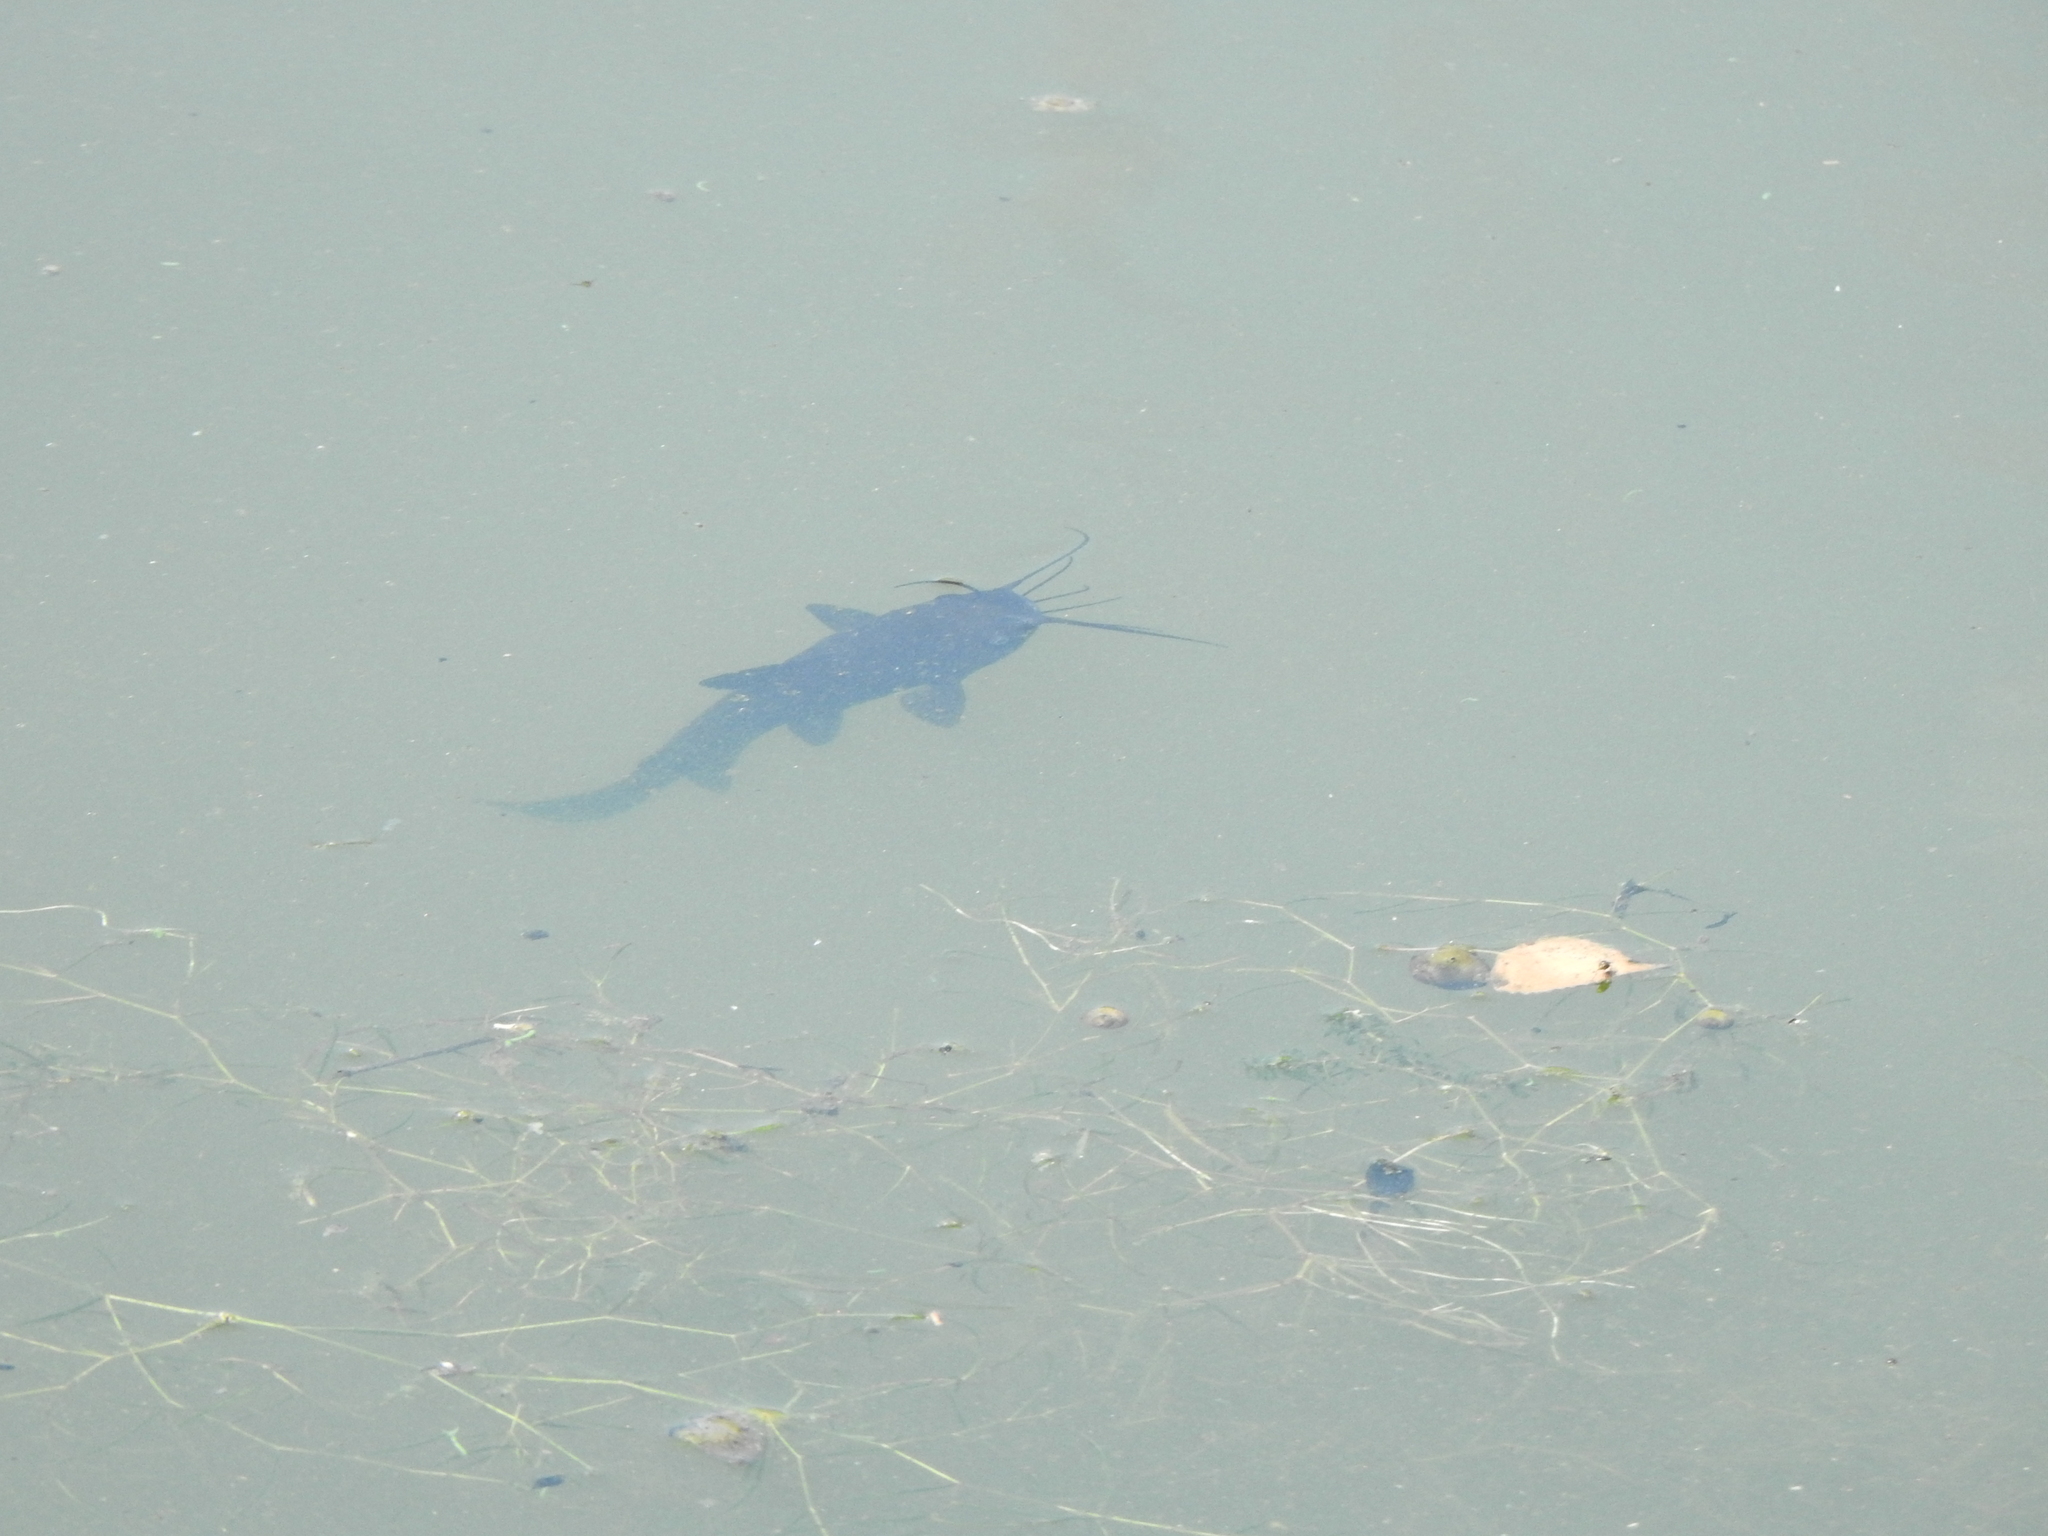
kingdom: Animalia
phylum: Chordata
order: Siluriformes
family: Ictaluridae
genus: Ameiurus
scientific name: Ameiurus melas
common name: Black bullhead
